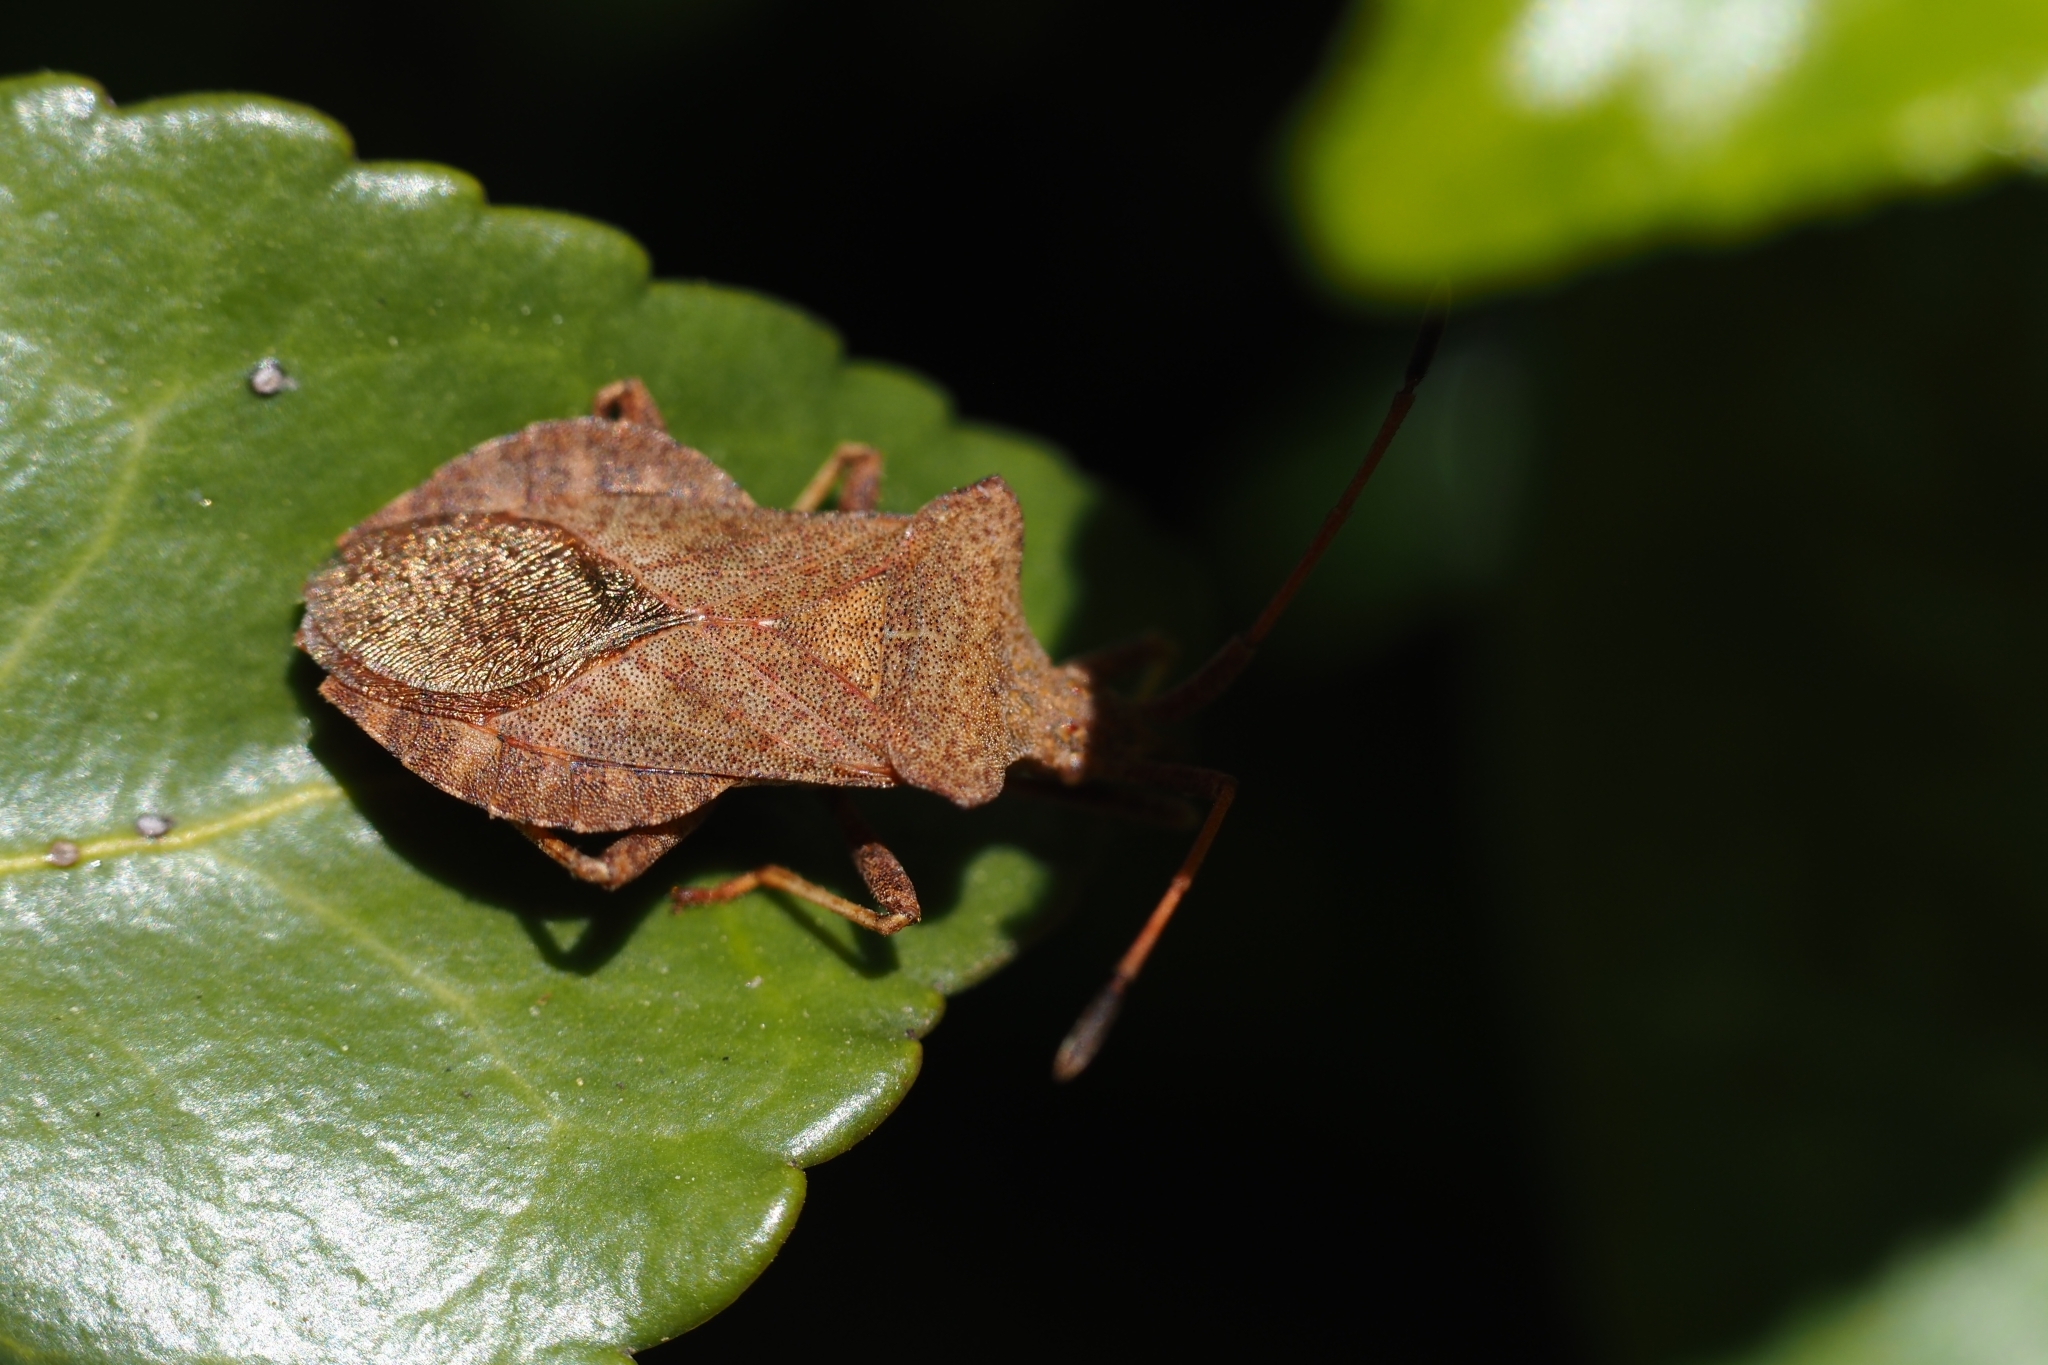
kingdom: Animalia
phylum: Arthropoda
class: Insecta
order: Hemiptera
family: Coreidae
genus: Coreus
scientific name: Coreus marginatus
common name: Dock bug
